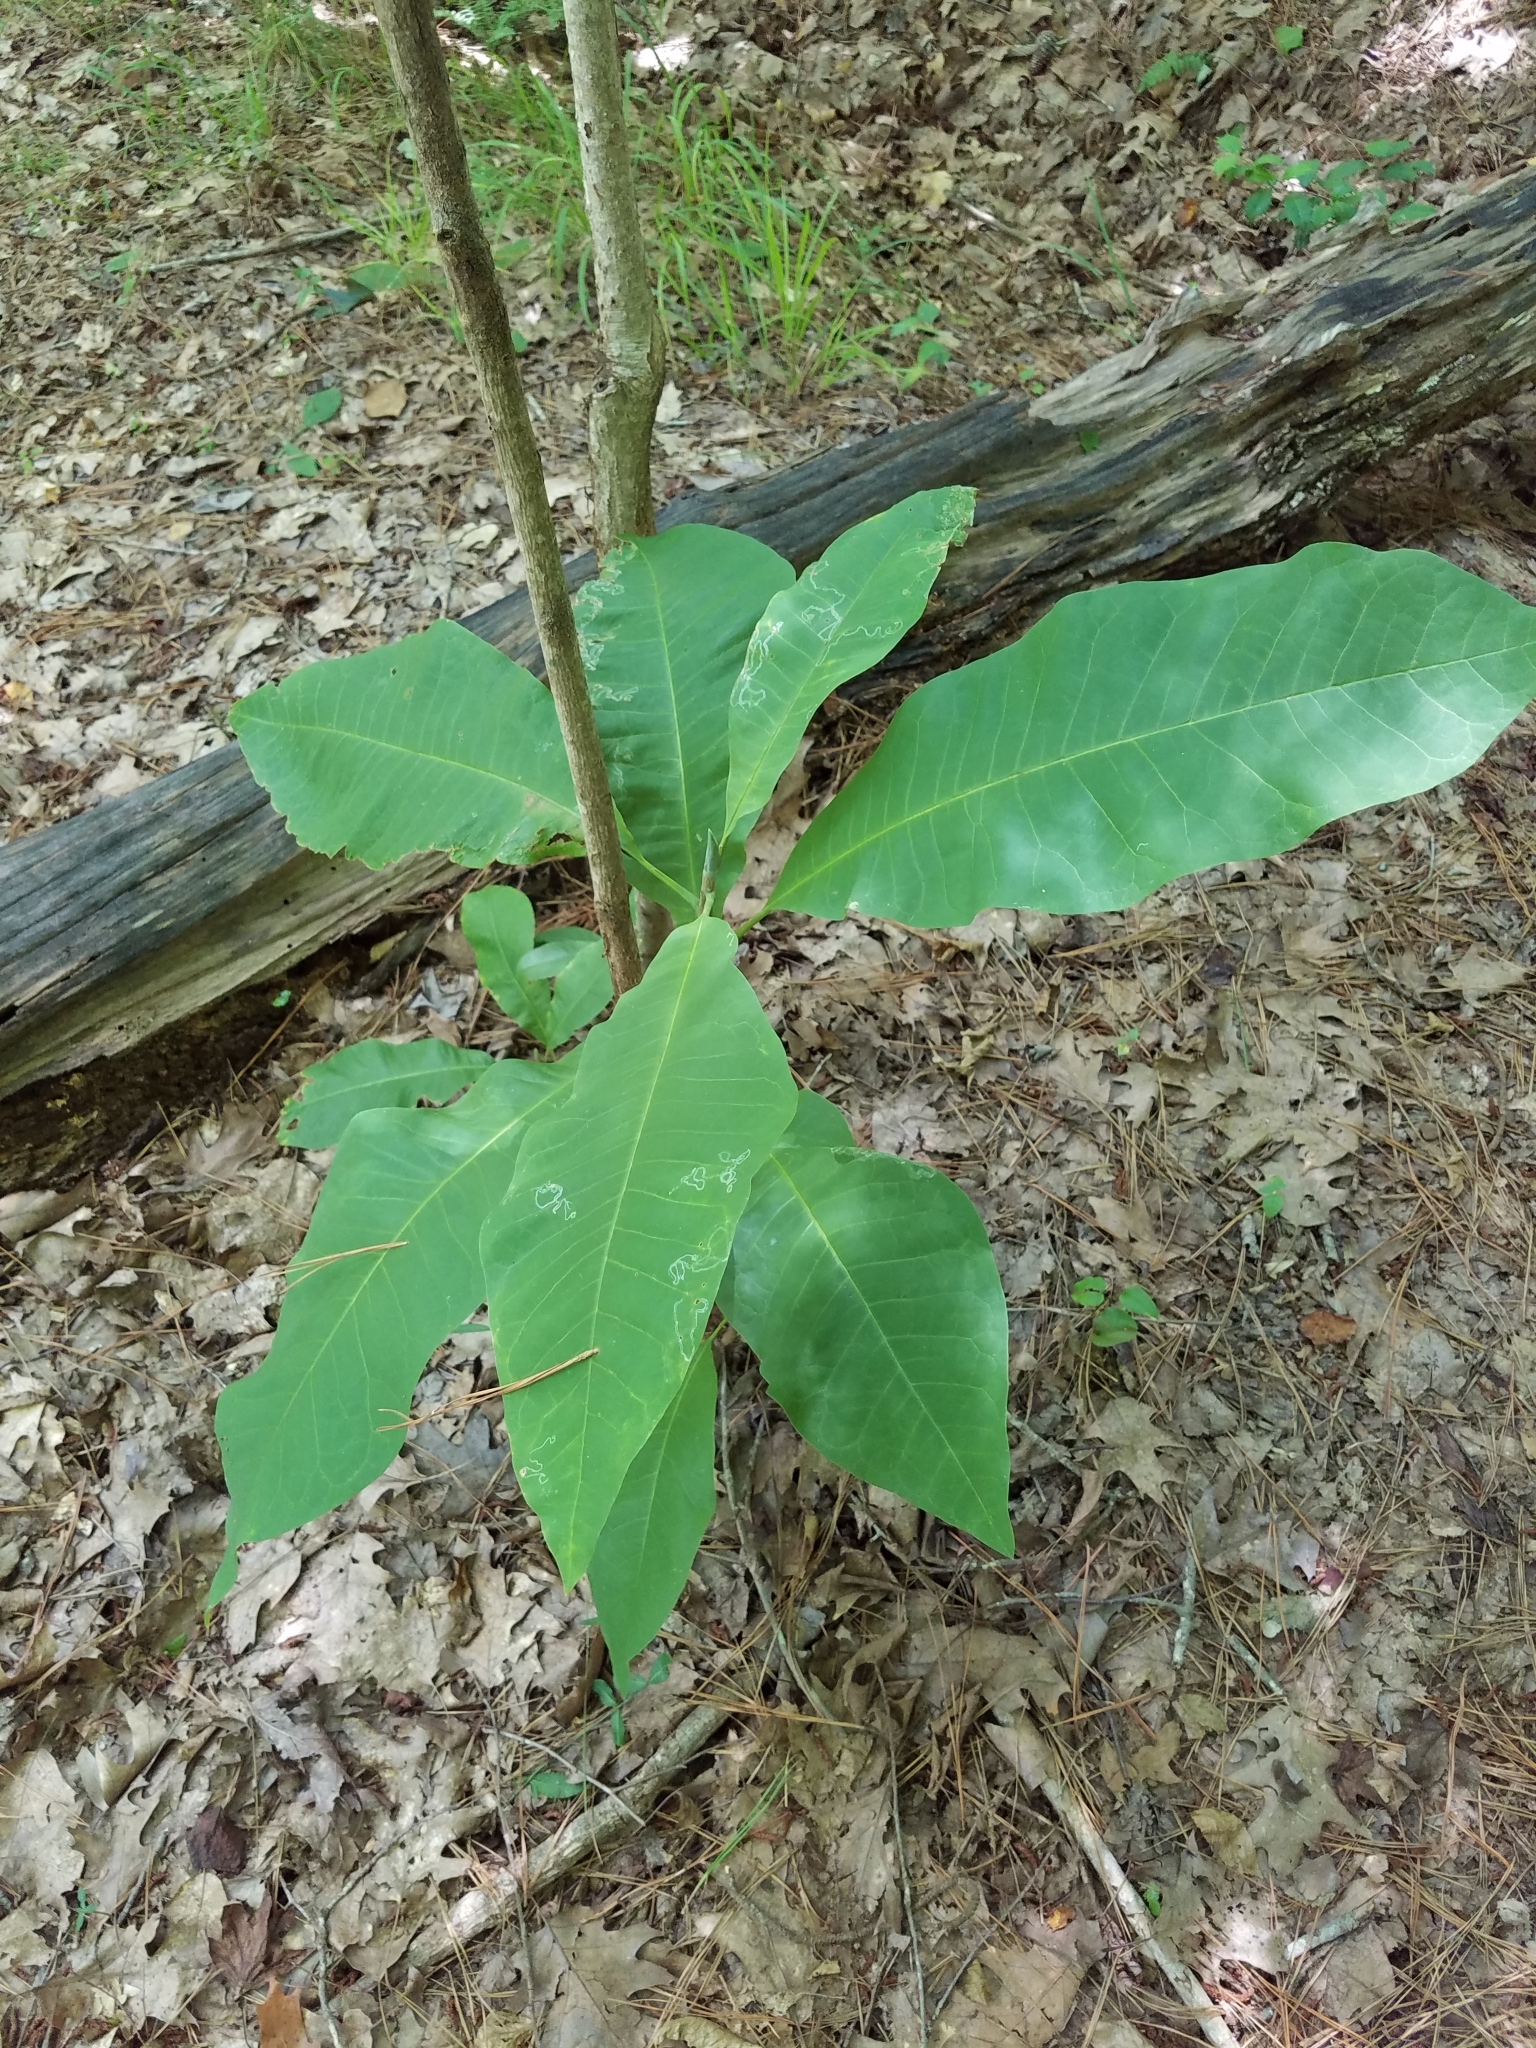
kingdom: Plantae
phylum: Tracheophyta
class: Magnoliopsida
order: Magnoliales
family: Magnoliaceae
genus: Magnolia
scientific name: Magnolia tripetala
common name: Umbrella magnolia
